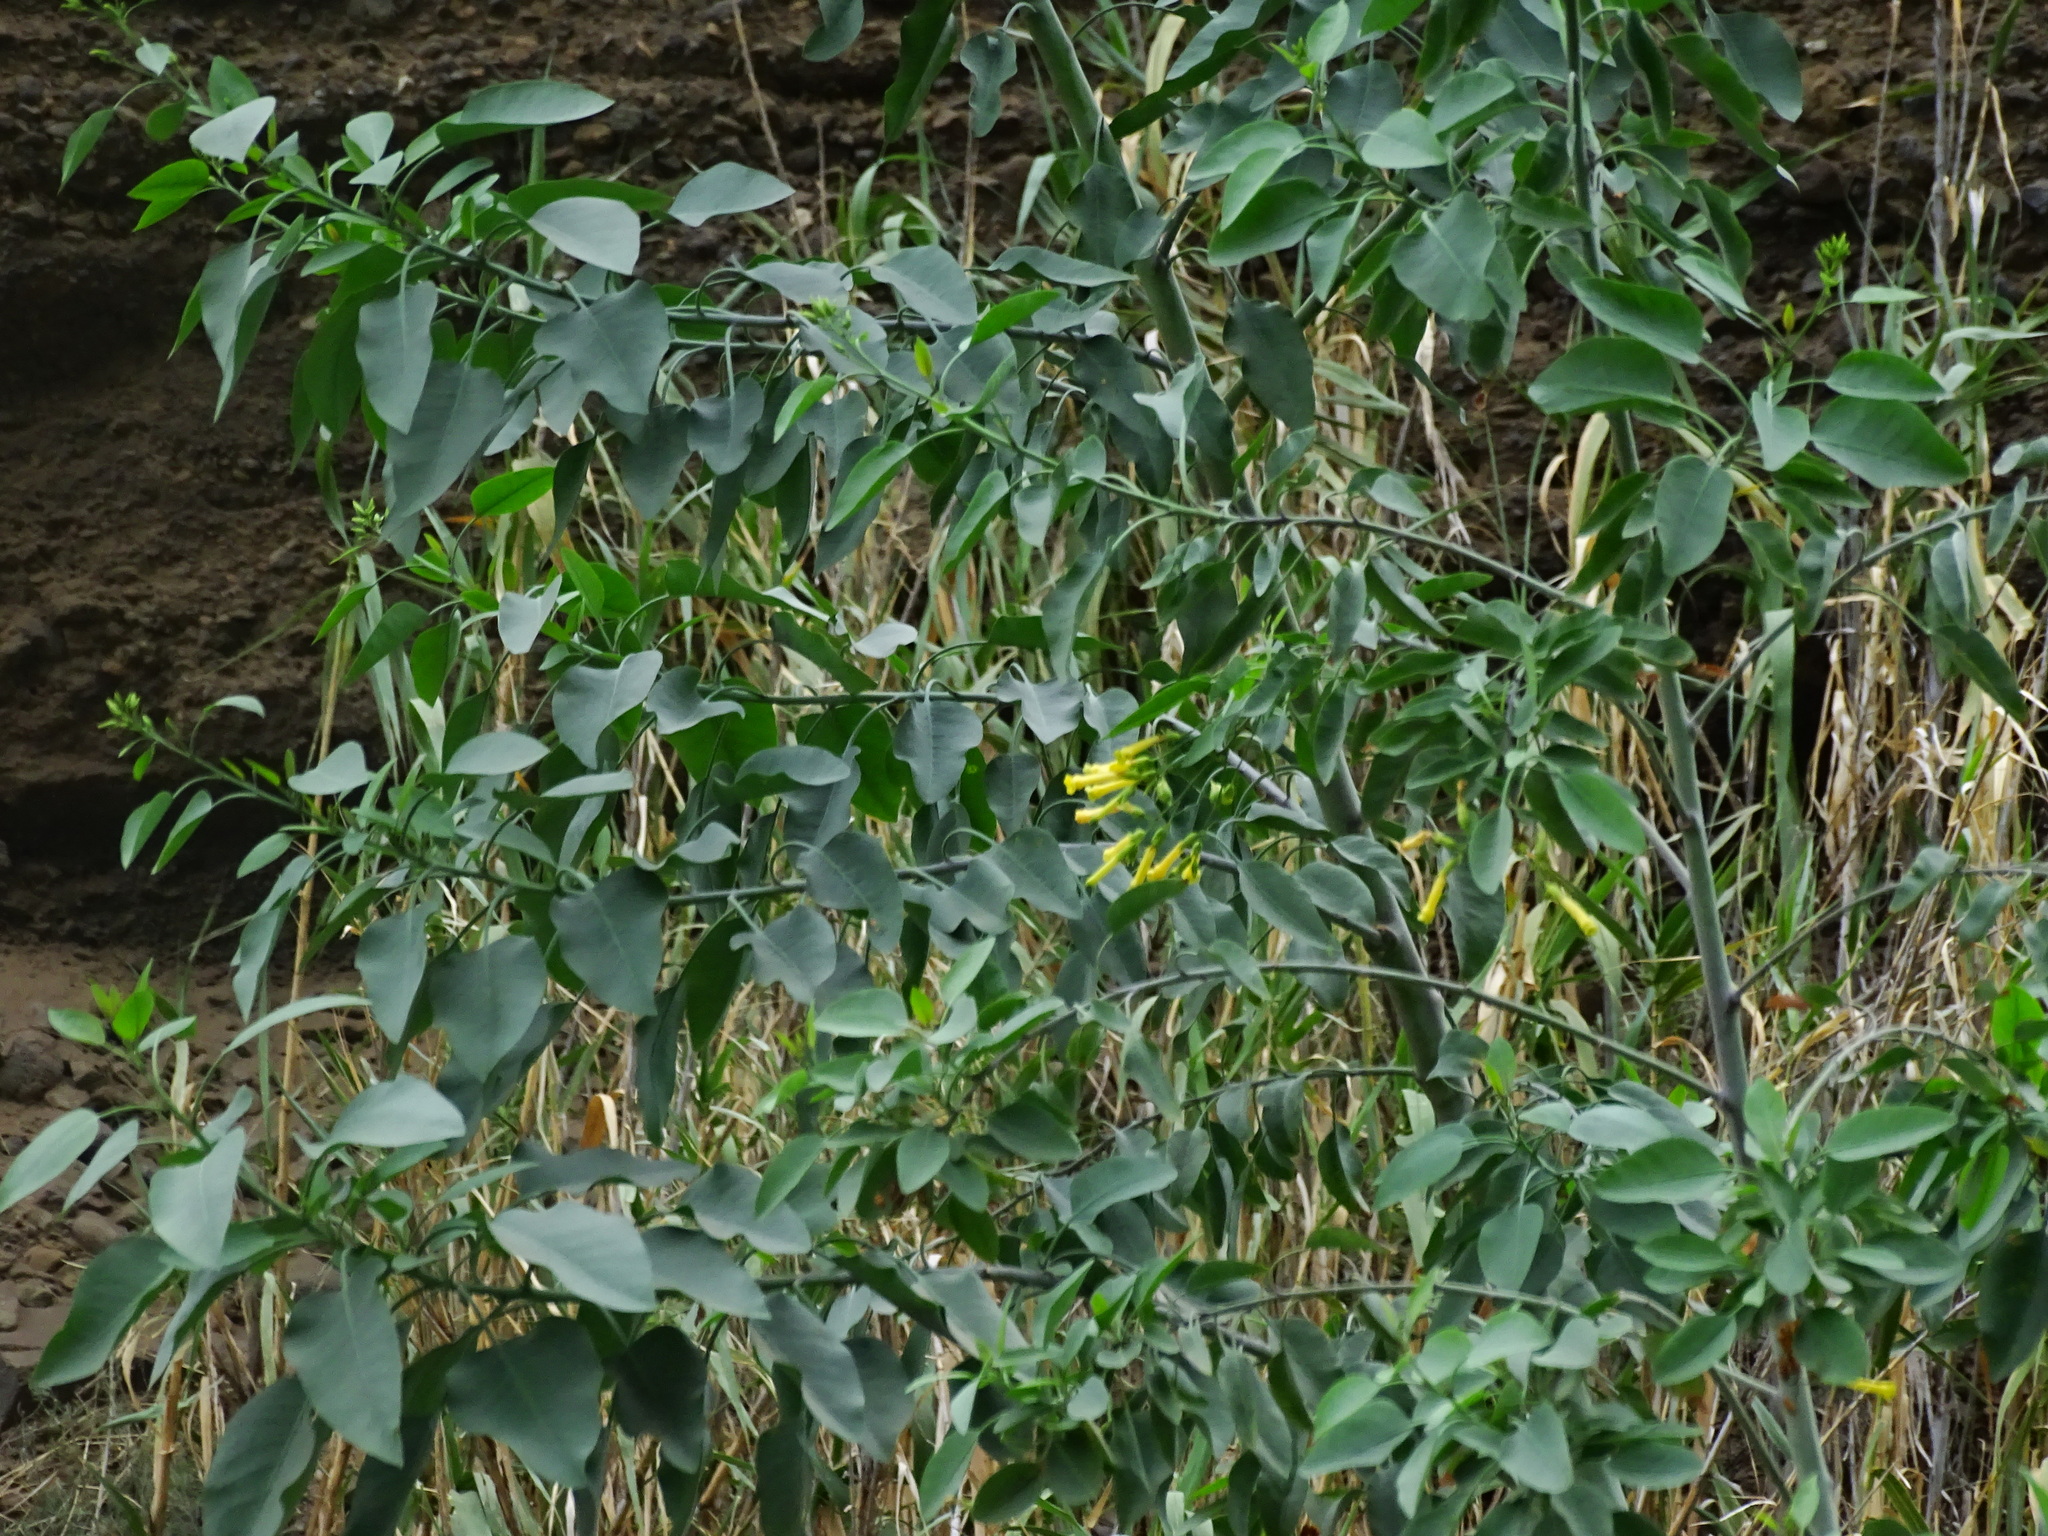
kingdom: Plantae
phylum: Tracheophyta
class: Magnoliopsida
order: Solanales
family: Solanaceae
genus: Nicotiana
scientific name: Nicotiana glauca
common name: Tree tobacco
